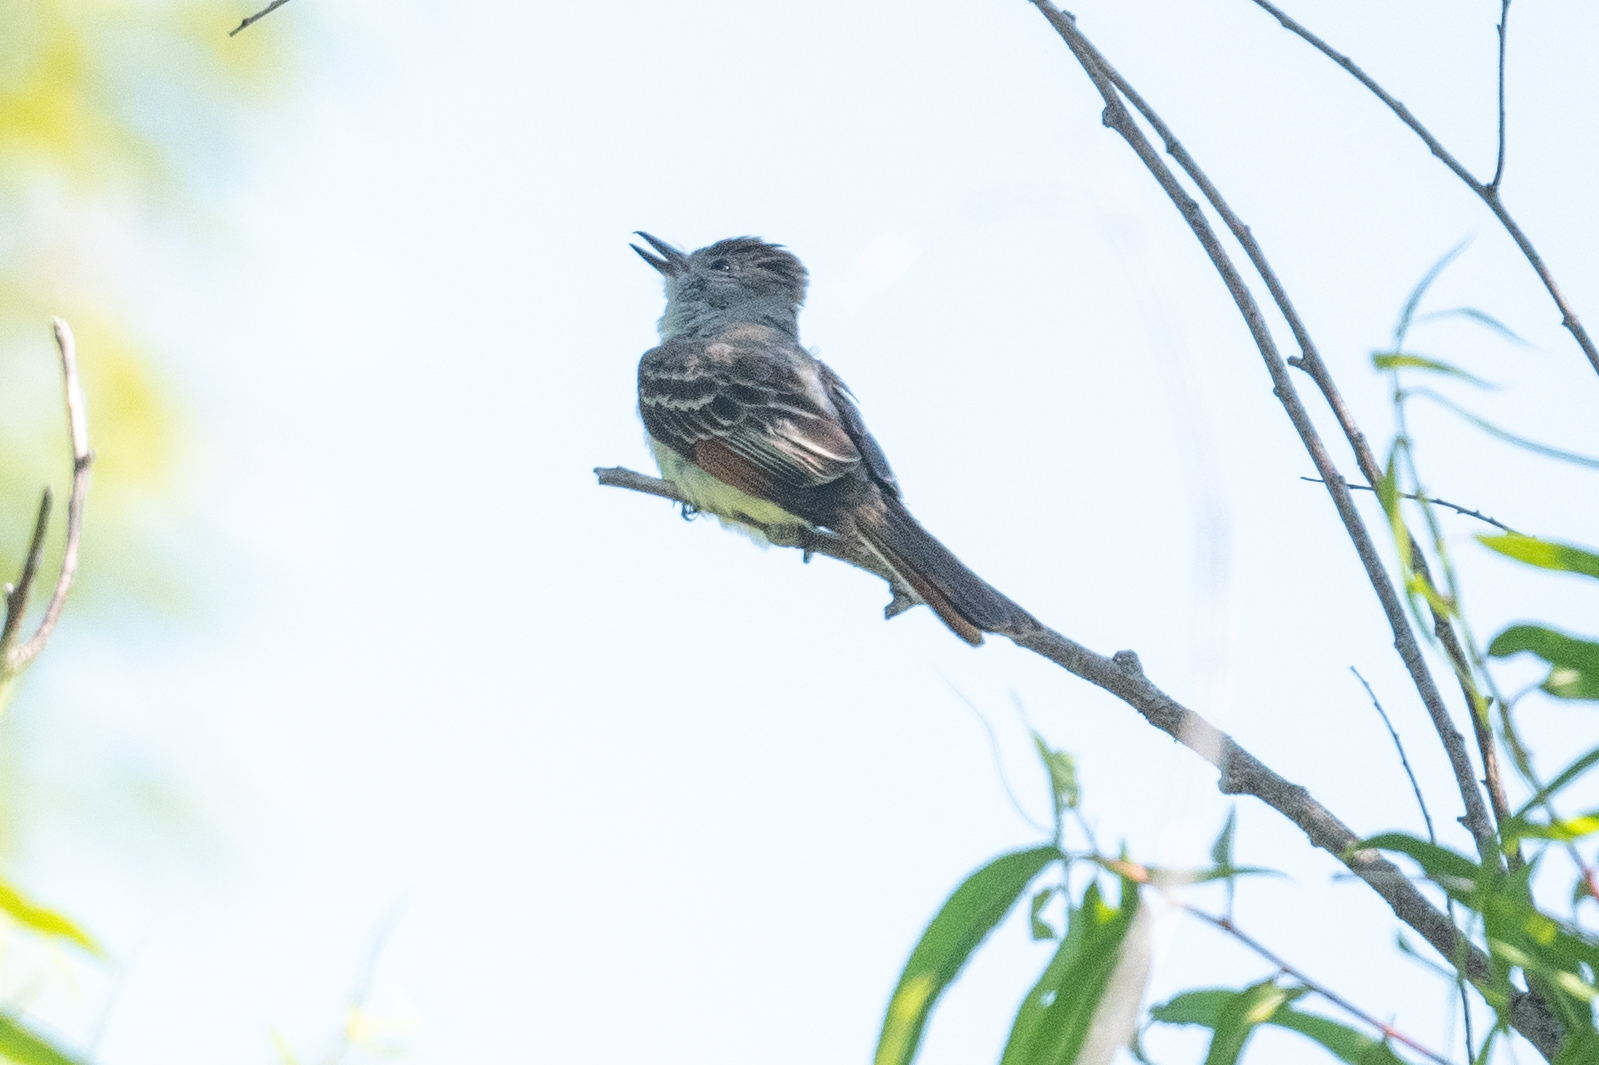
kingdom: Animalia
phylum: Chordata
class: Aves
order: Passeriformes
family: Tyrannidae
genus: Myiarchus
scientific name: Myiarchus cinerascens
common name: Ash-throated flycatcher
